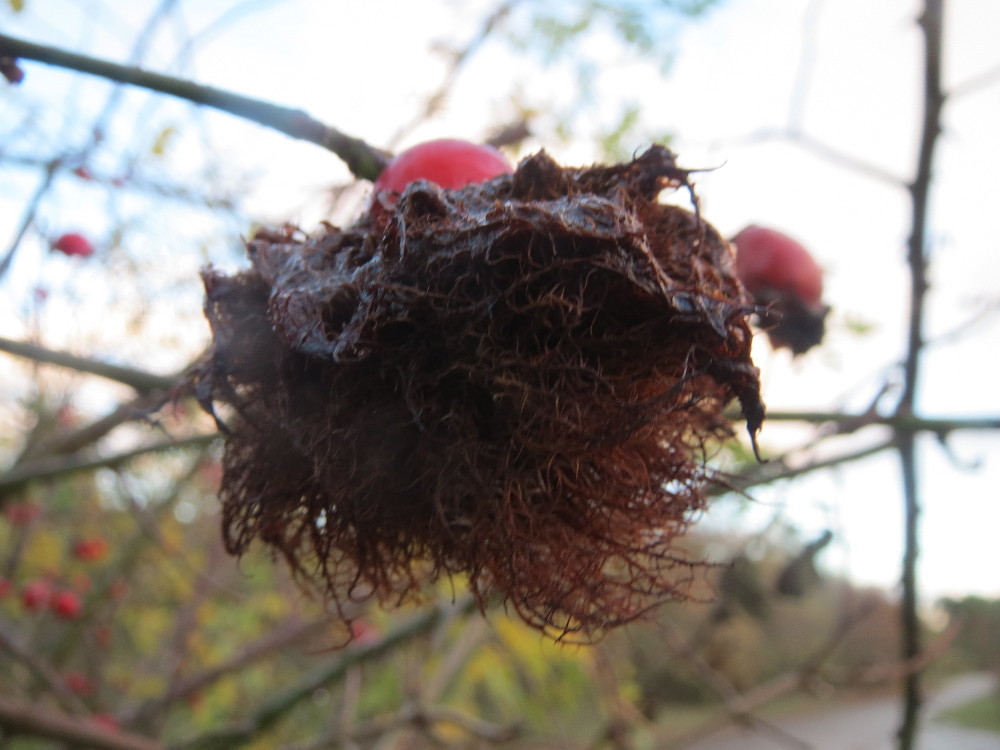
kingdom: Animalia
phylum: Arthropoda
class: Insecta
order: Hymenoptera
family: Cynipidae
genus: Diplolepis
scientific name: Diplolepis rosae
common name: Bedeguar gall
